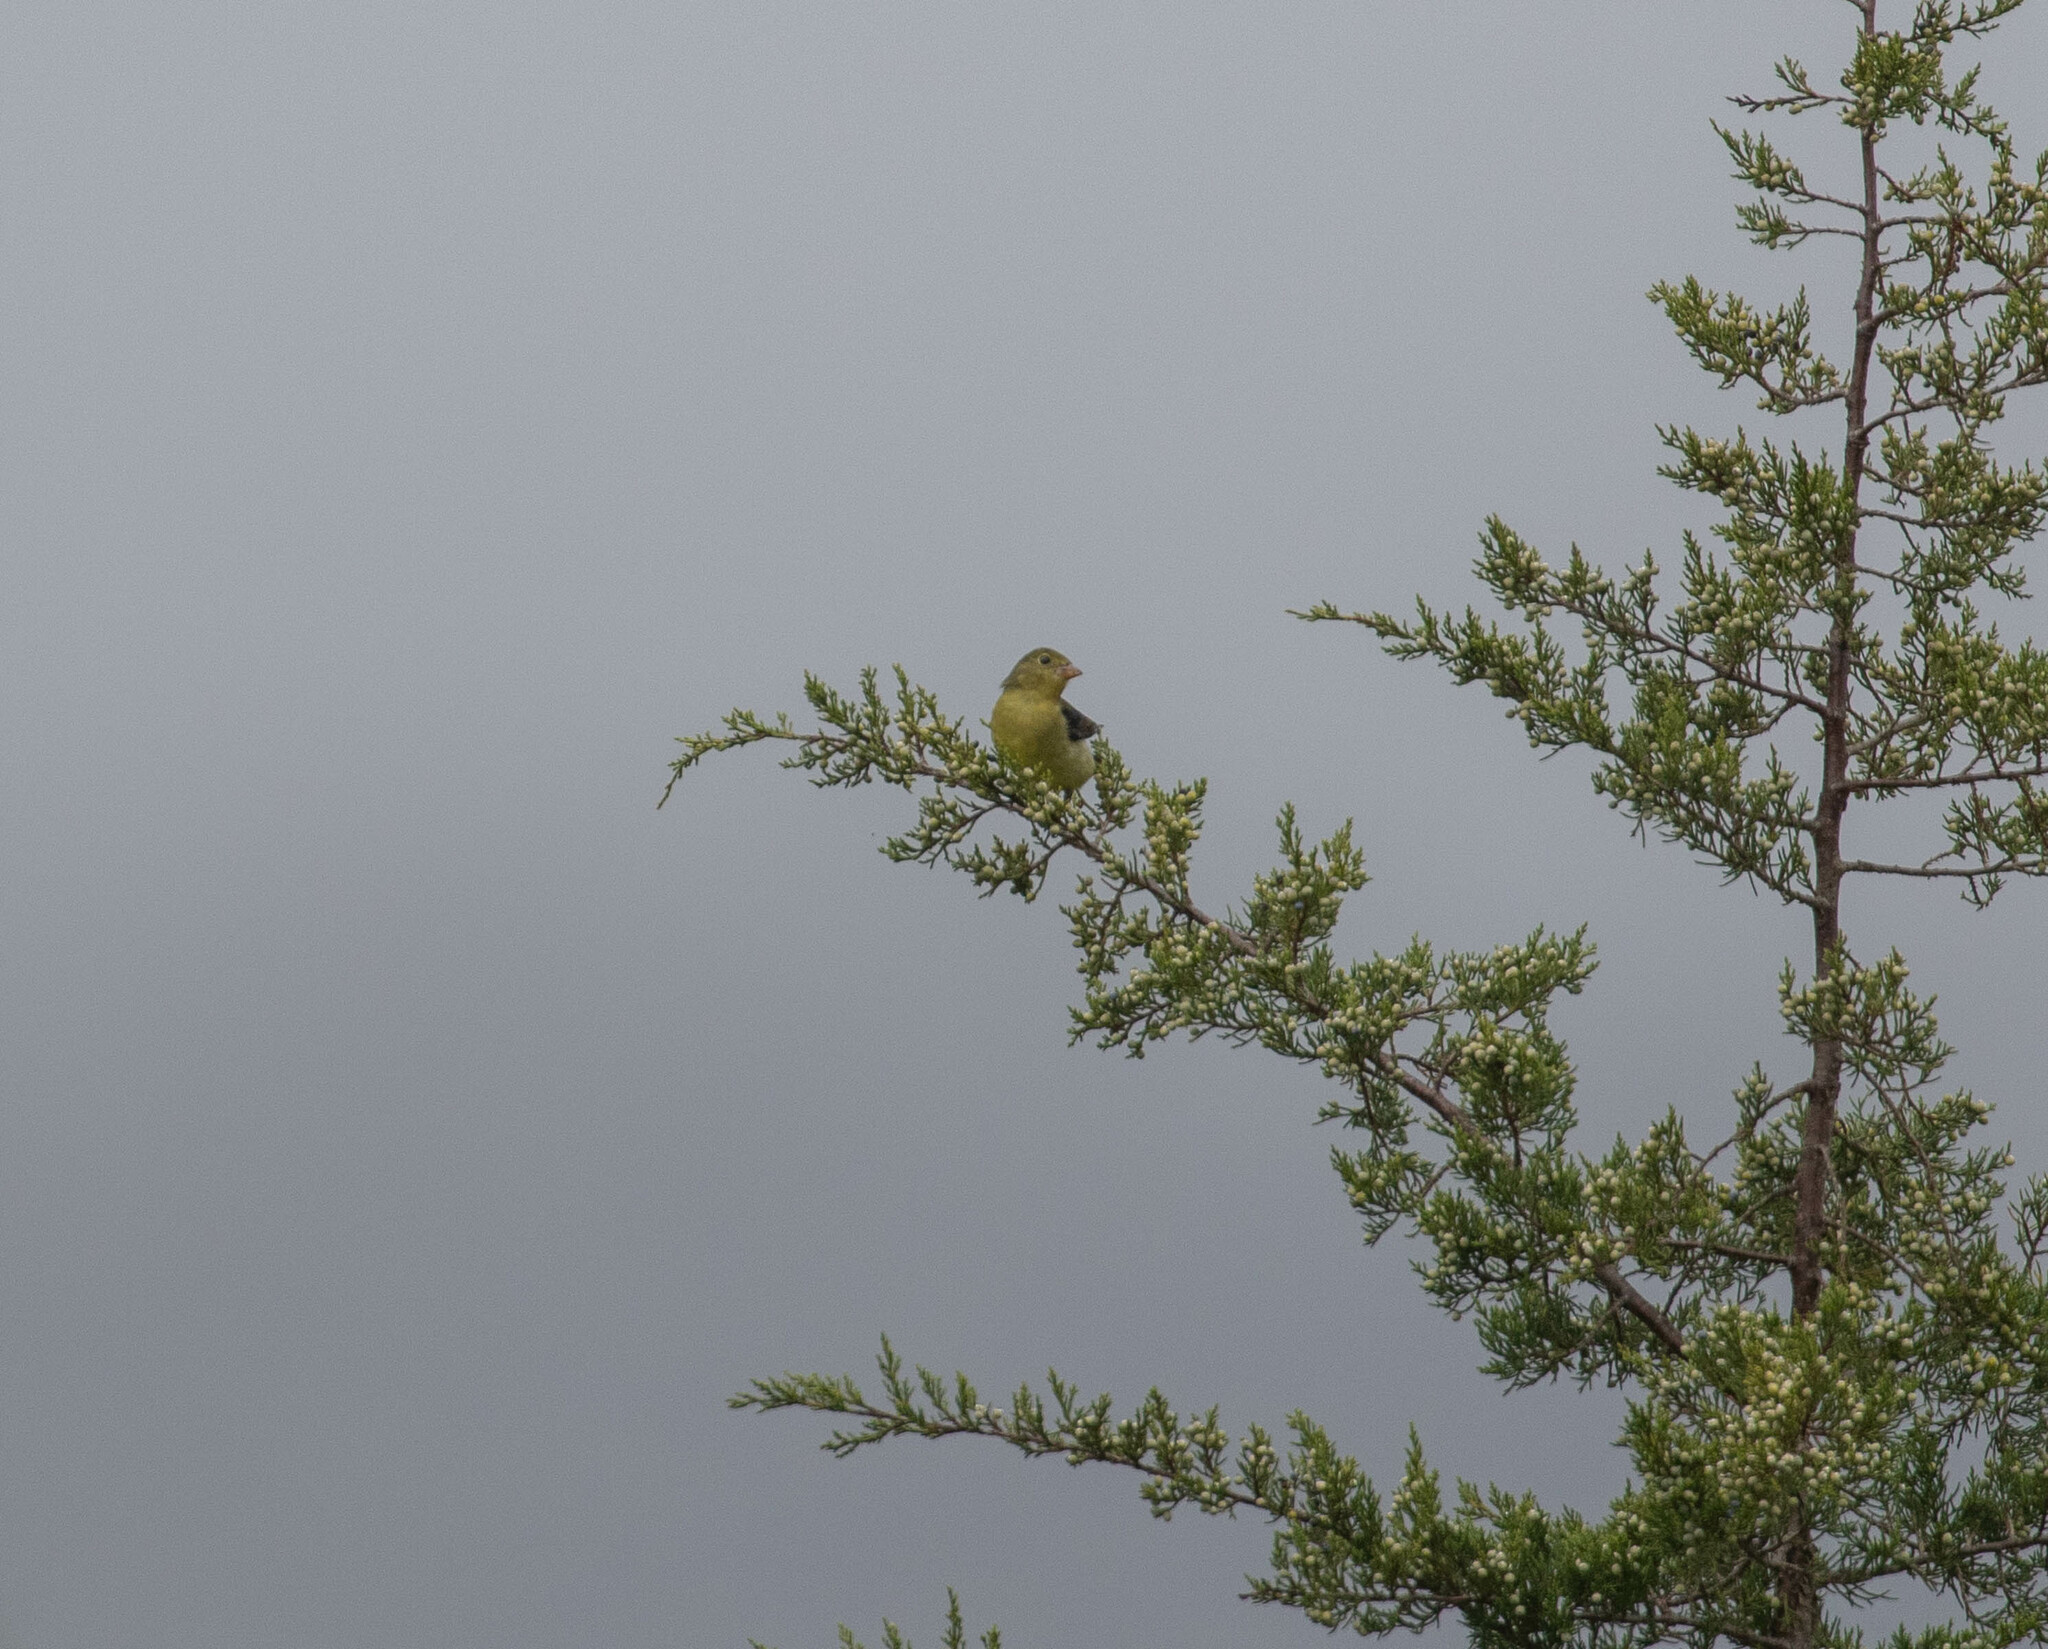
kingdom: Animalia
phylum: Chordata
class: Aves
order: Passeriformes
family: Cardinalidae
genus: Piranga
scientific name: Piranga olivacea
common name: Scarlet tanager
